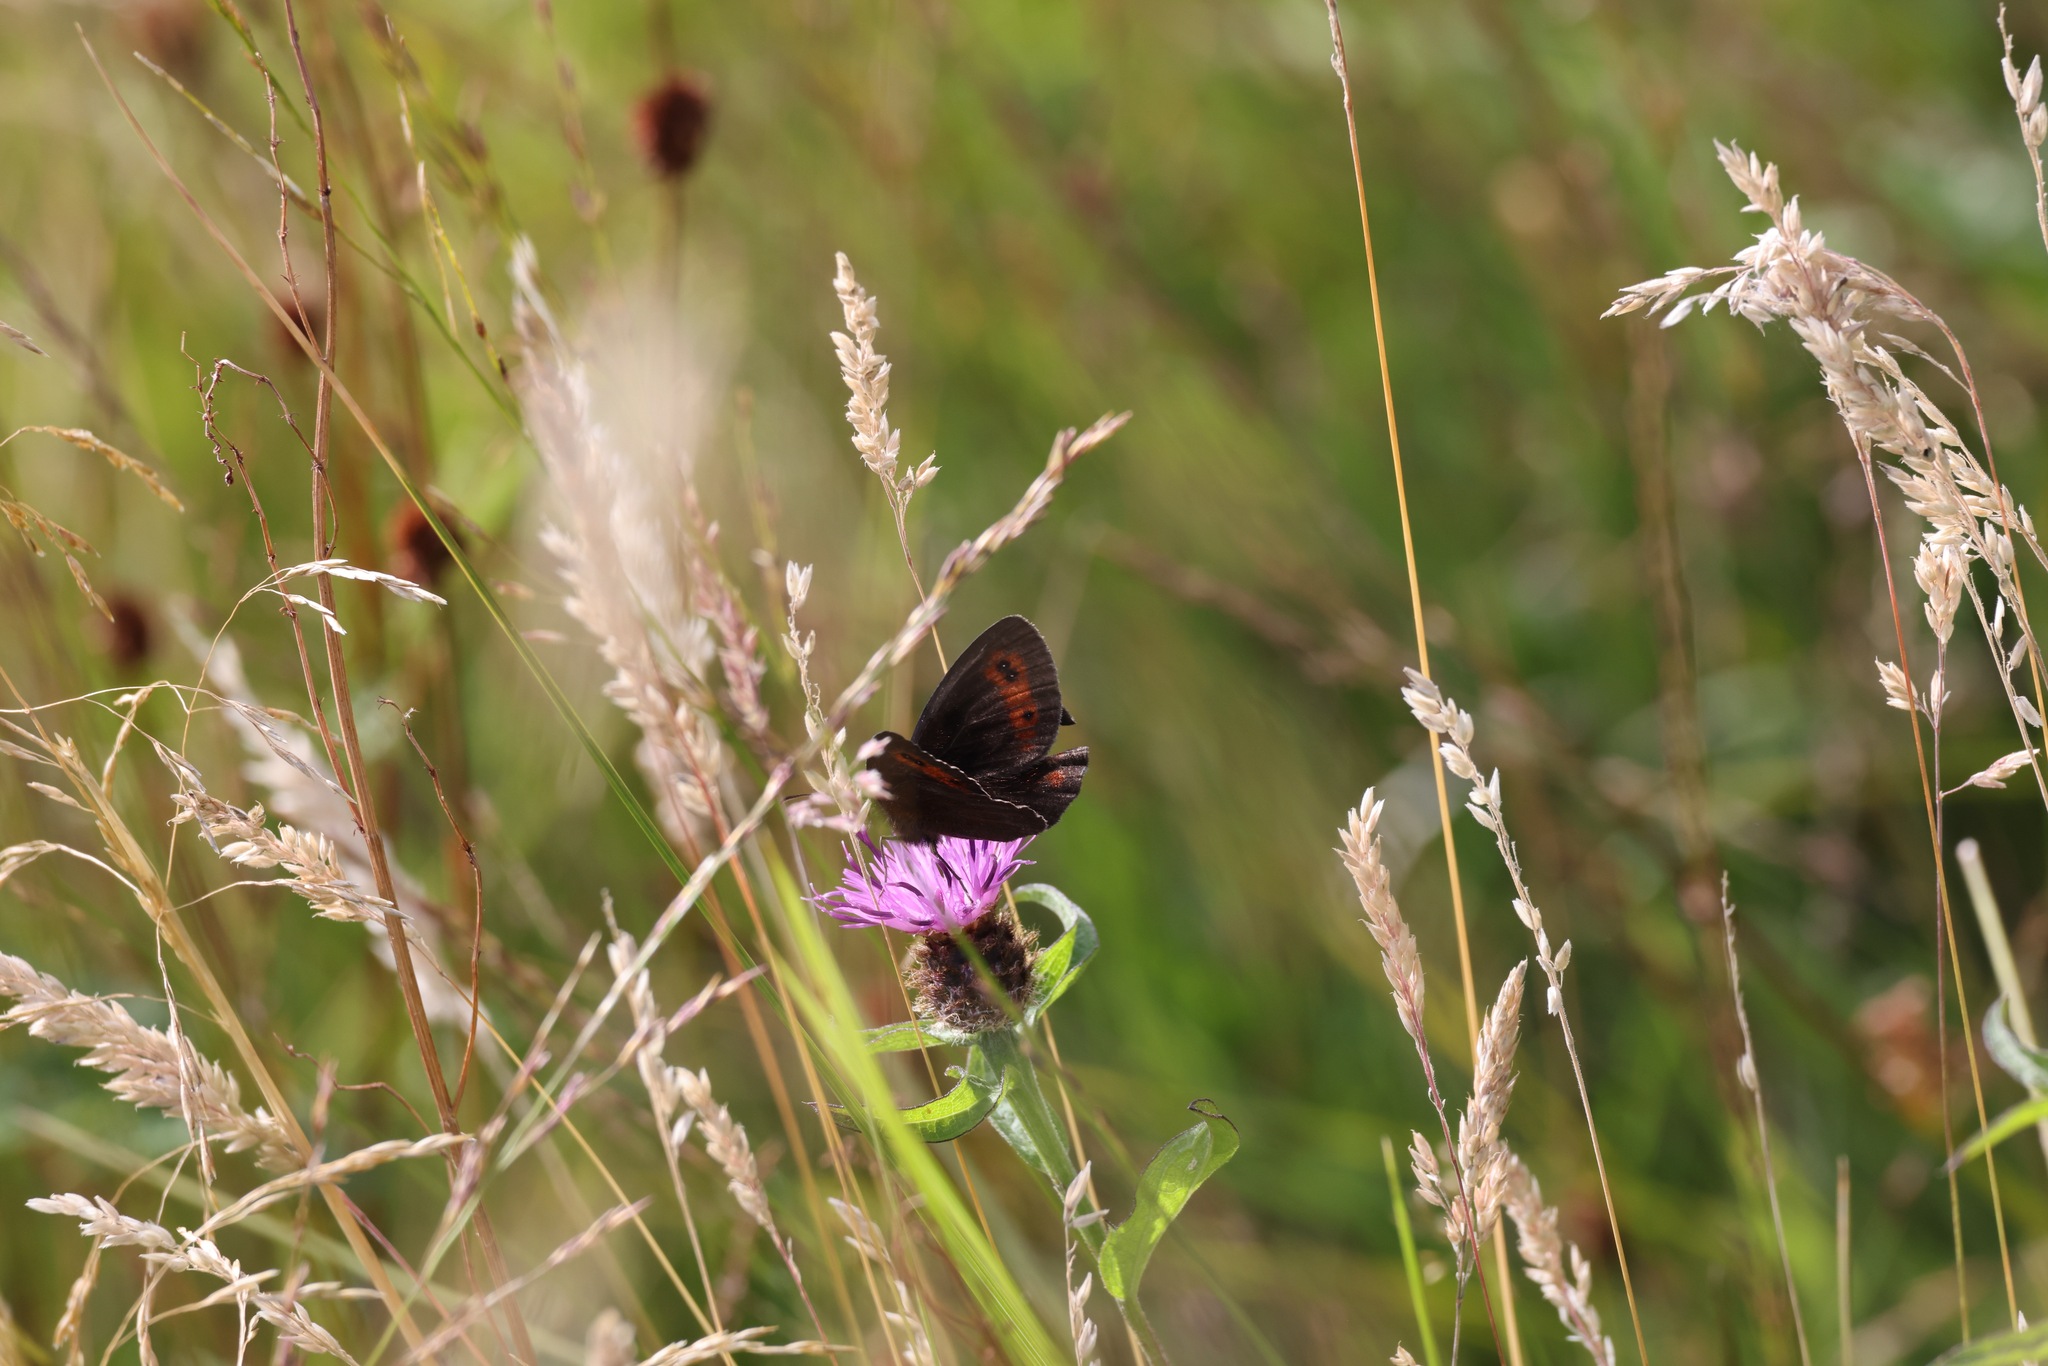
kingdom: Animalia
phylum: Arthropoda
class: Insecta
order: Lepidoptera
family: Nymphalidae
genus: Erebia
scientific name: Erebia aethiops
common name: Scotch argus
